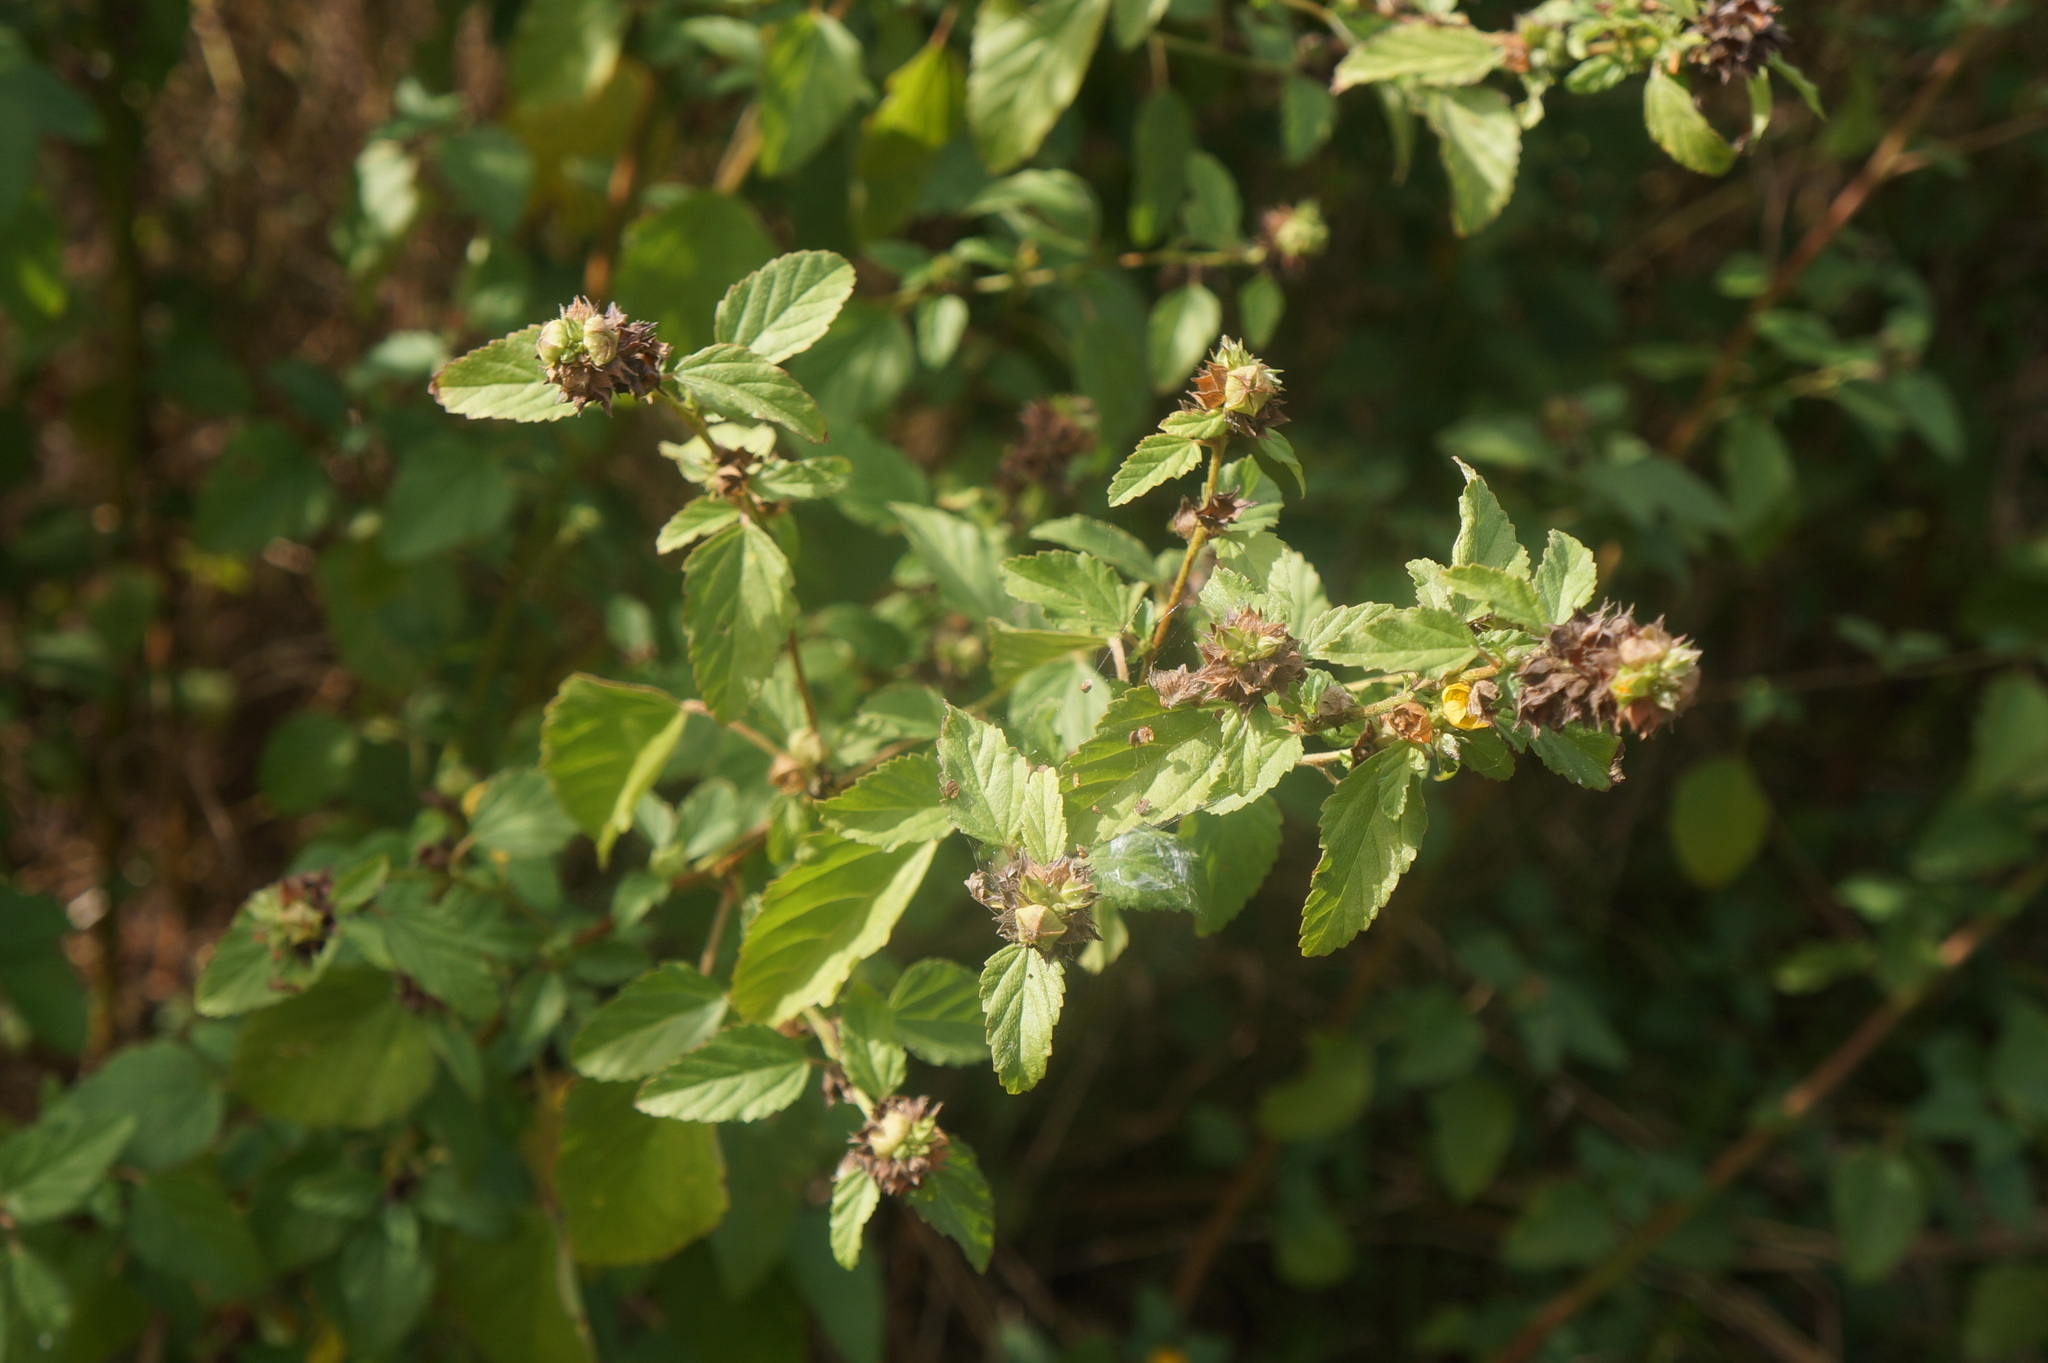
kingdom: Plantae
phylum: Tracheophyta
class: Magnoliopsida
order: Malvales
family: Malvaceae
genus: Waltheria
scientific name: Waltheria indica
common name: Leather-coat
